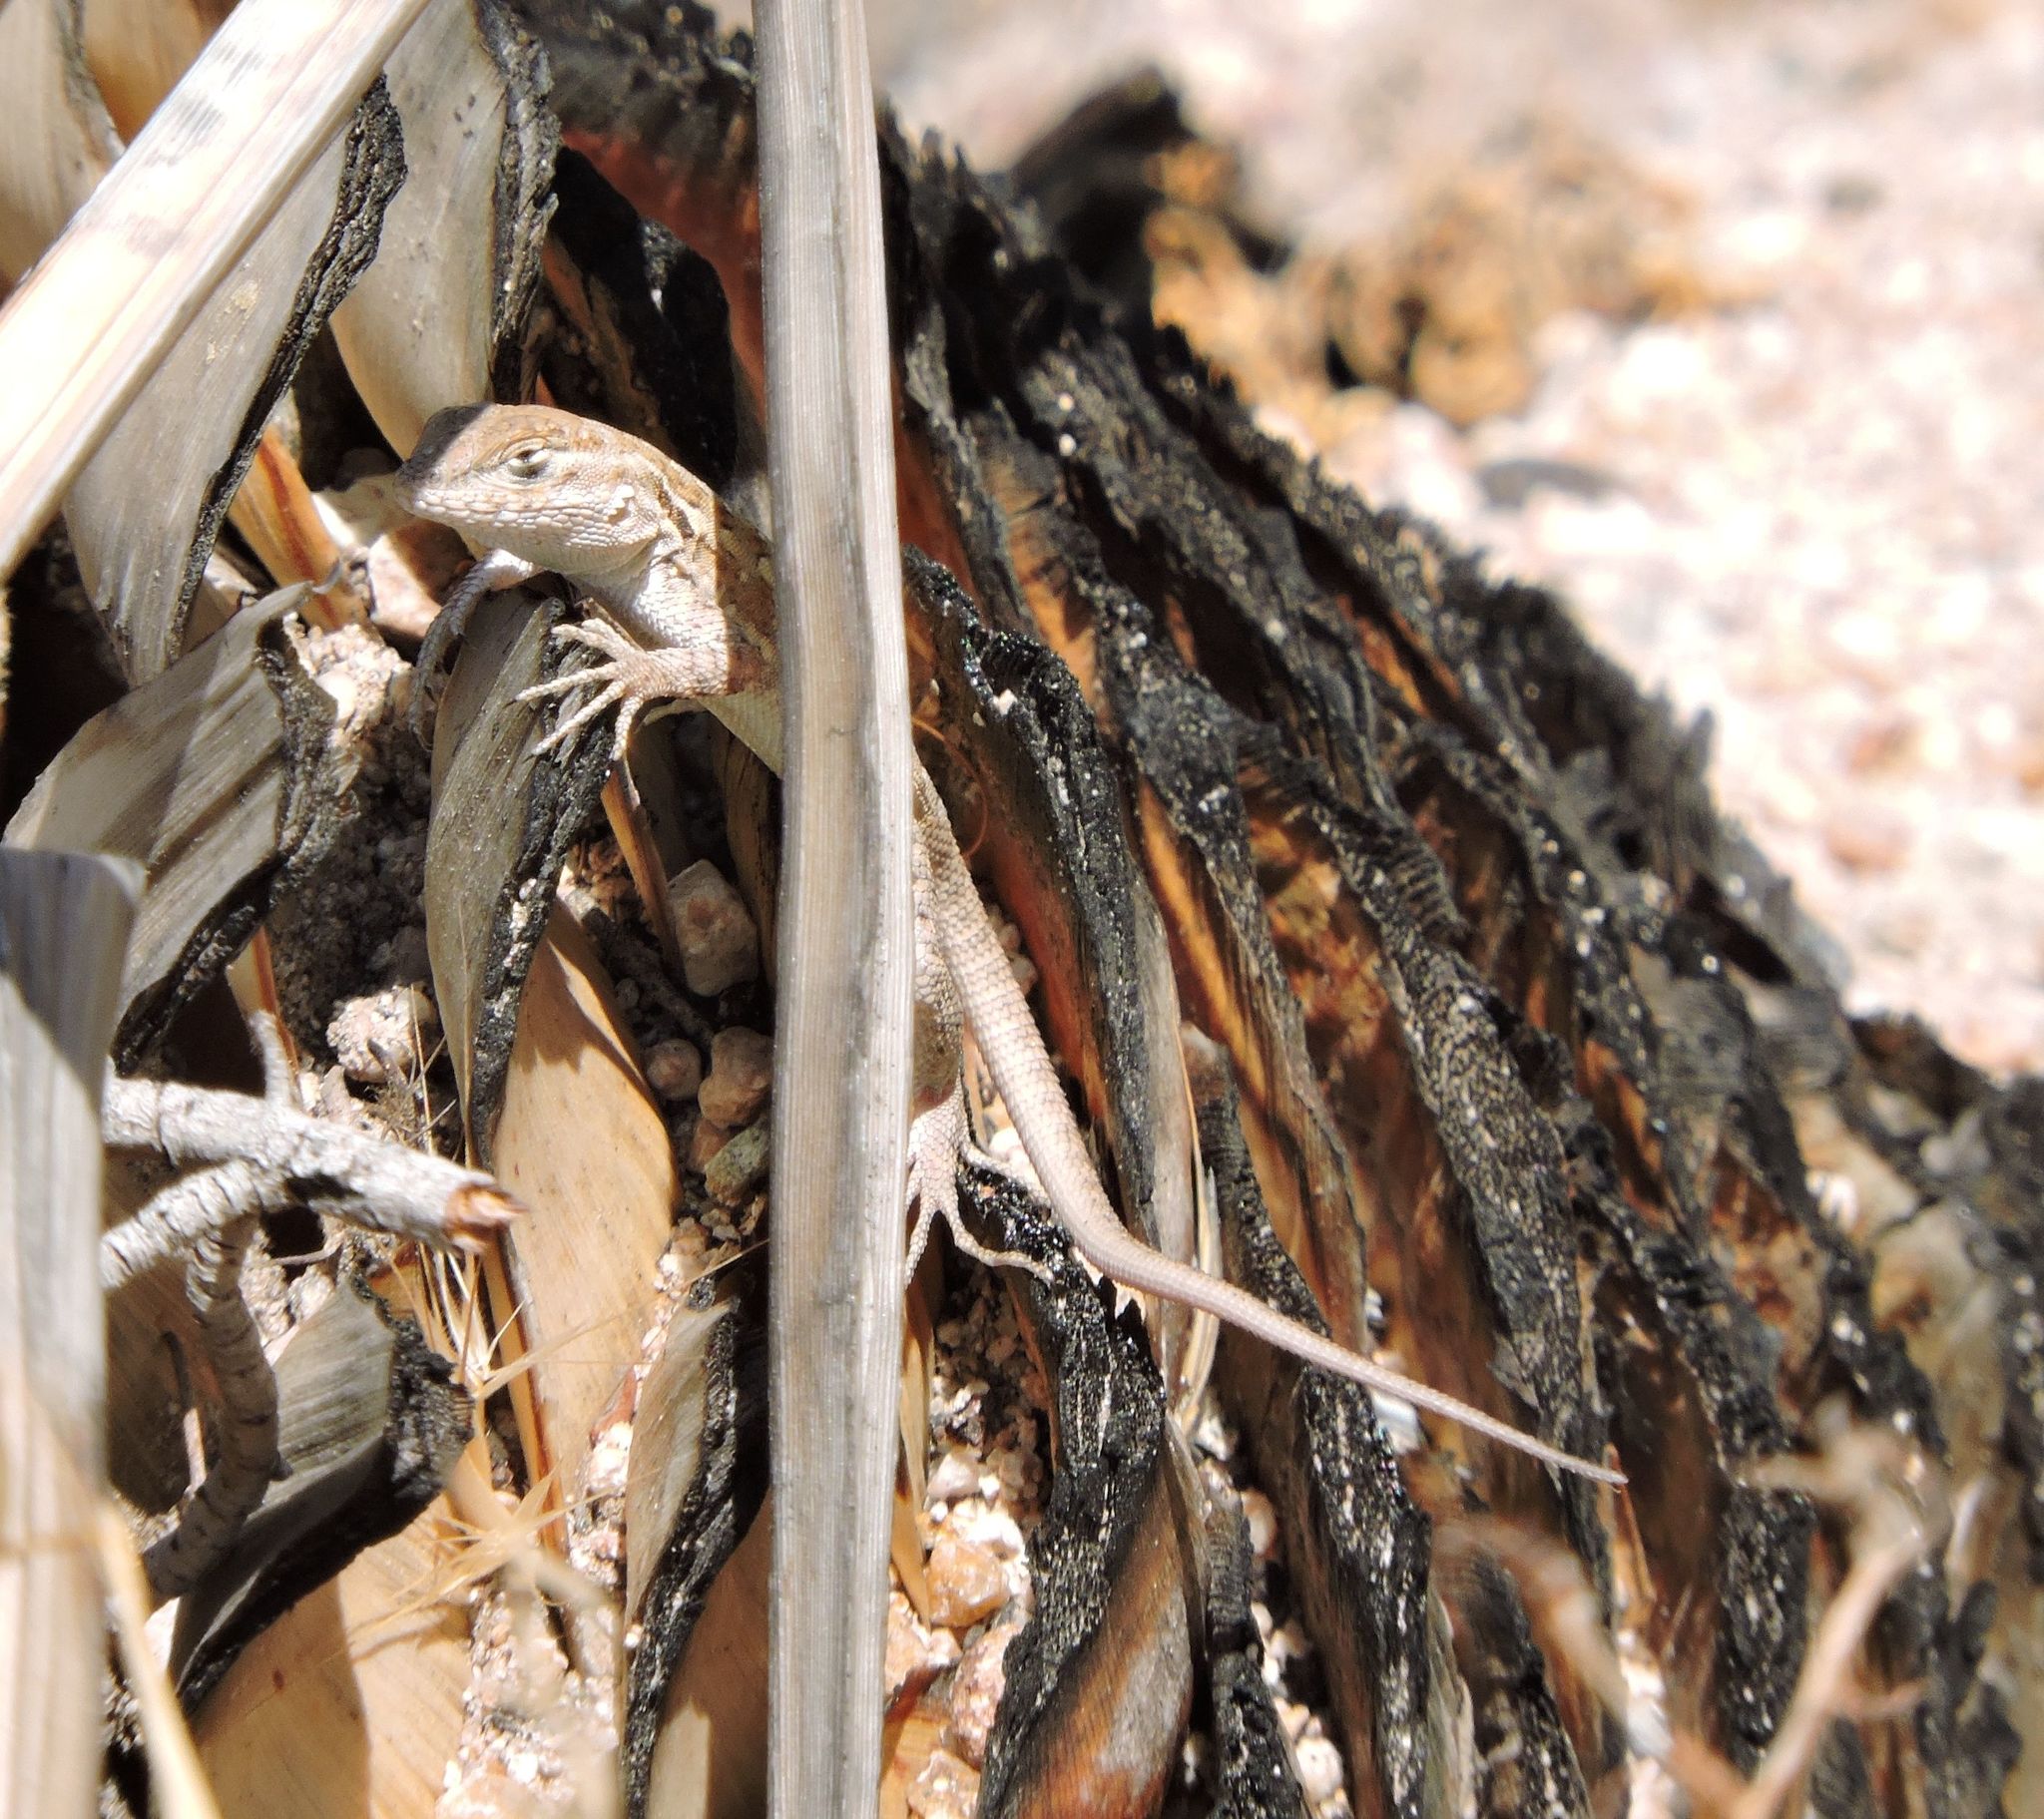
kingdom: Animalia
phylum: Chordata
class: Squamata
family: Phrynosomatidae
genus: Uta
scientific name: Uta stansburiana
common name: Side-blotched lizard
